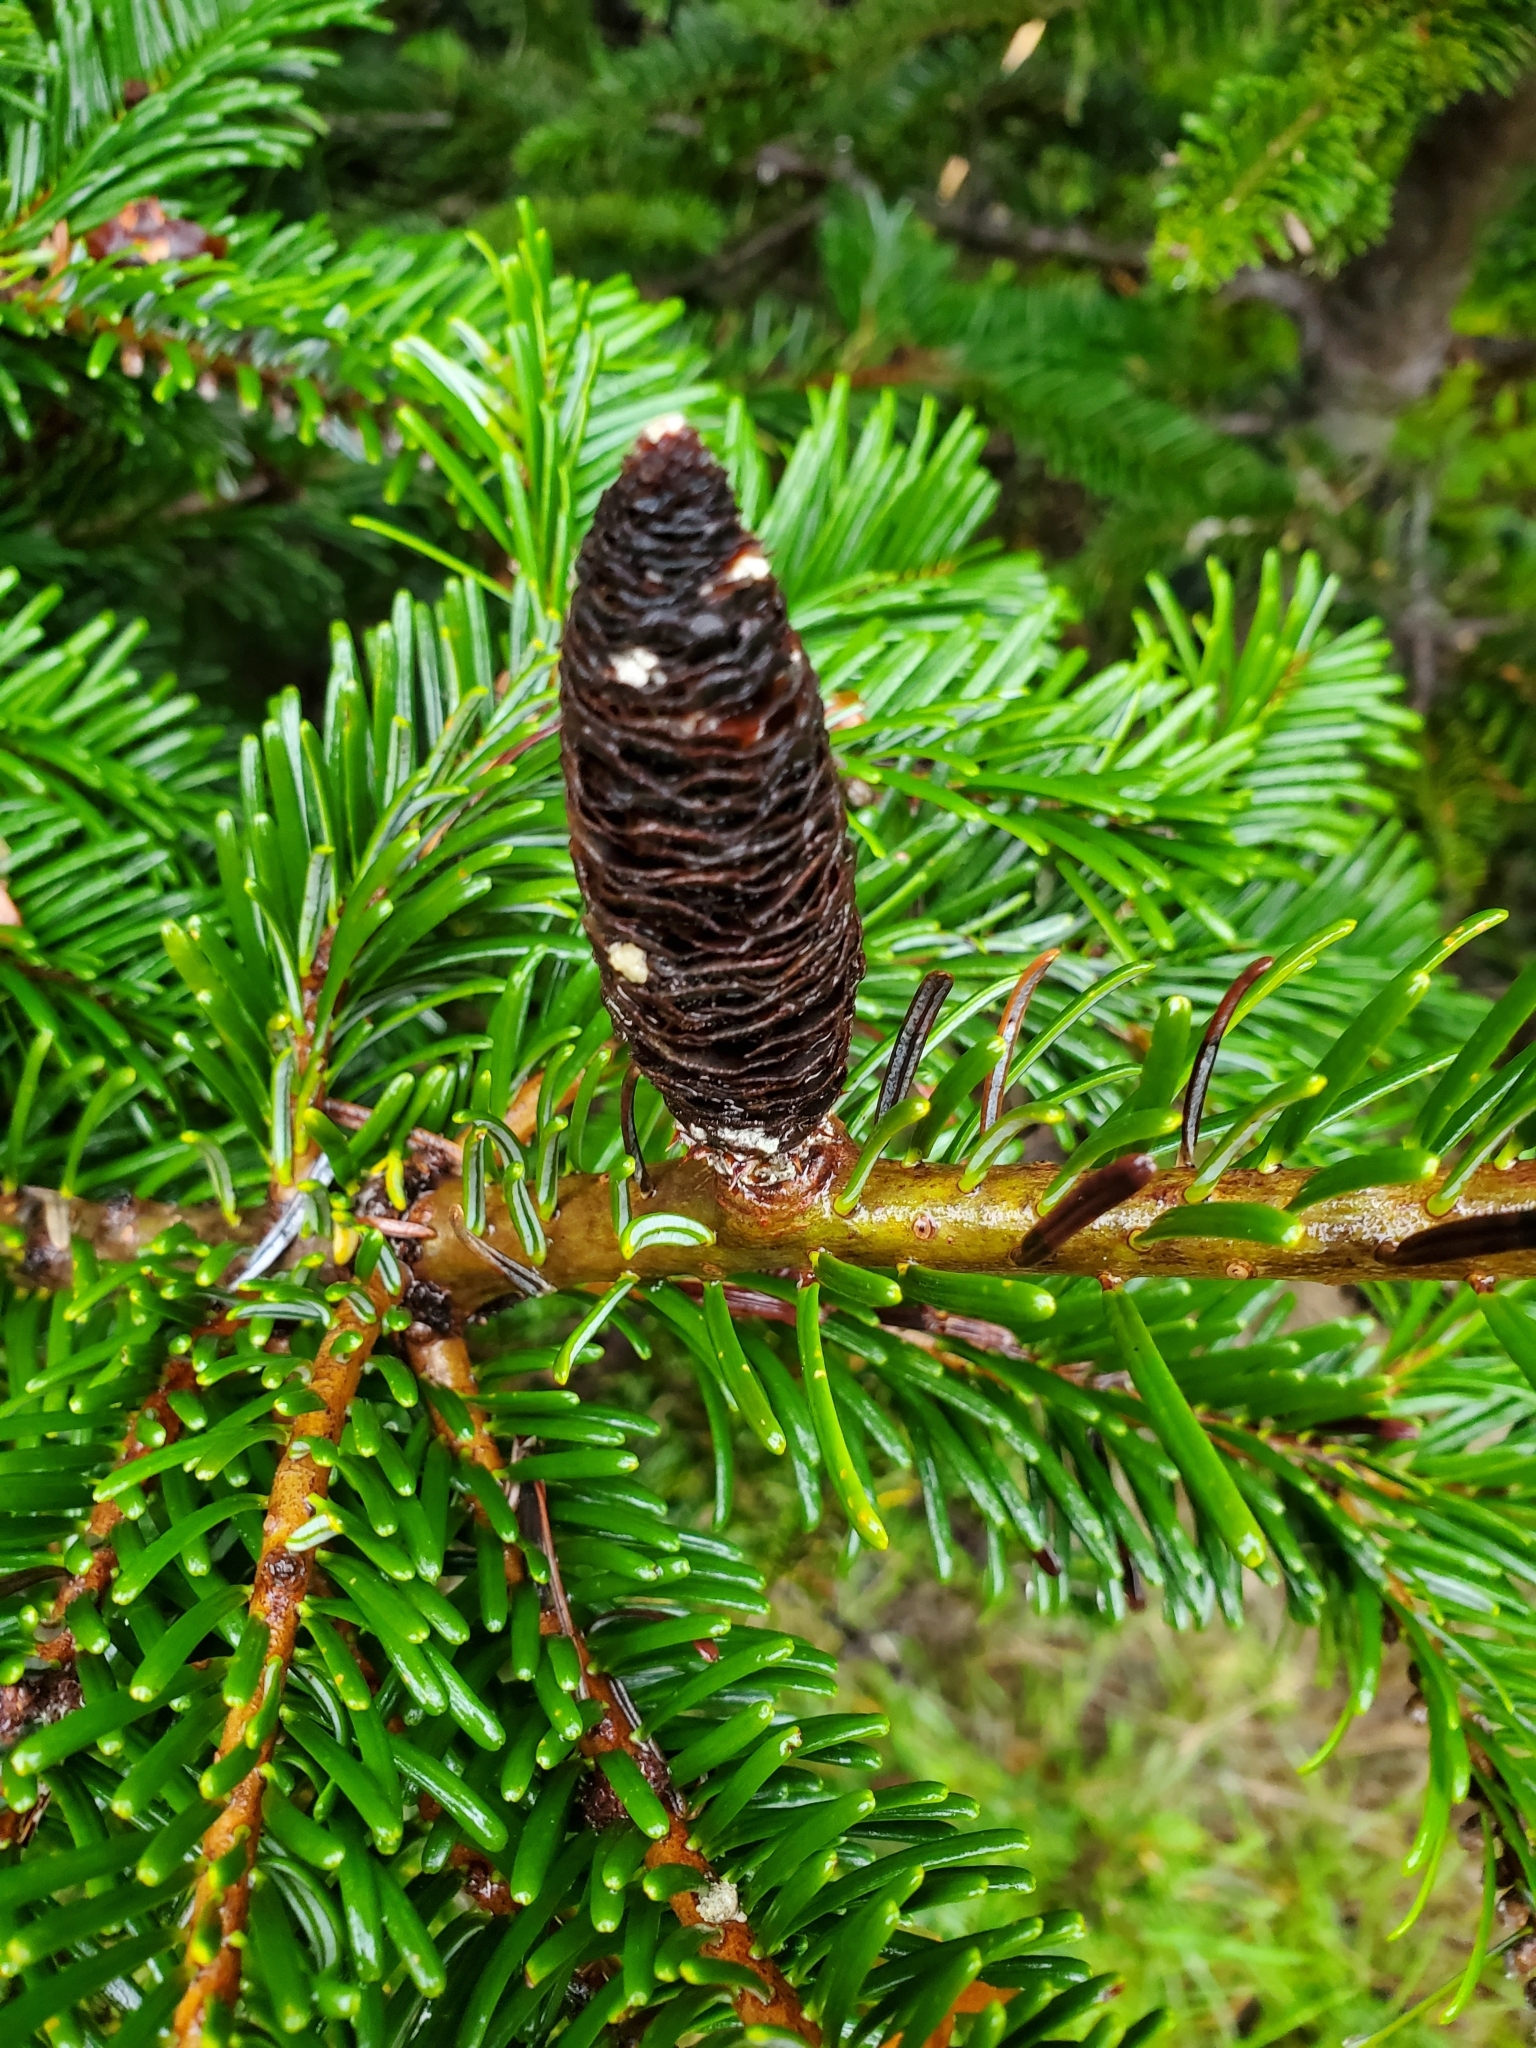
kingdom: Plantae
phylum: Tracheophyta
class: Pinopsida
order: Pinales
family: Pinaceae
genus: Abies
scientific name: Abies grandis
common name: Giant fir
